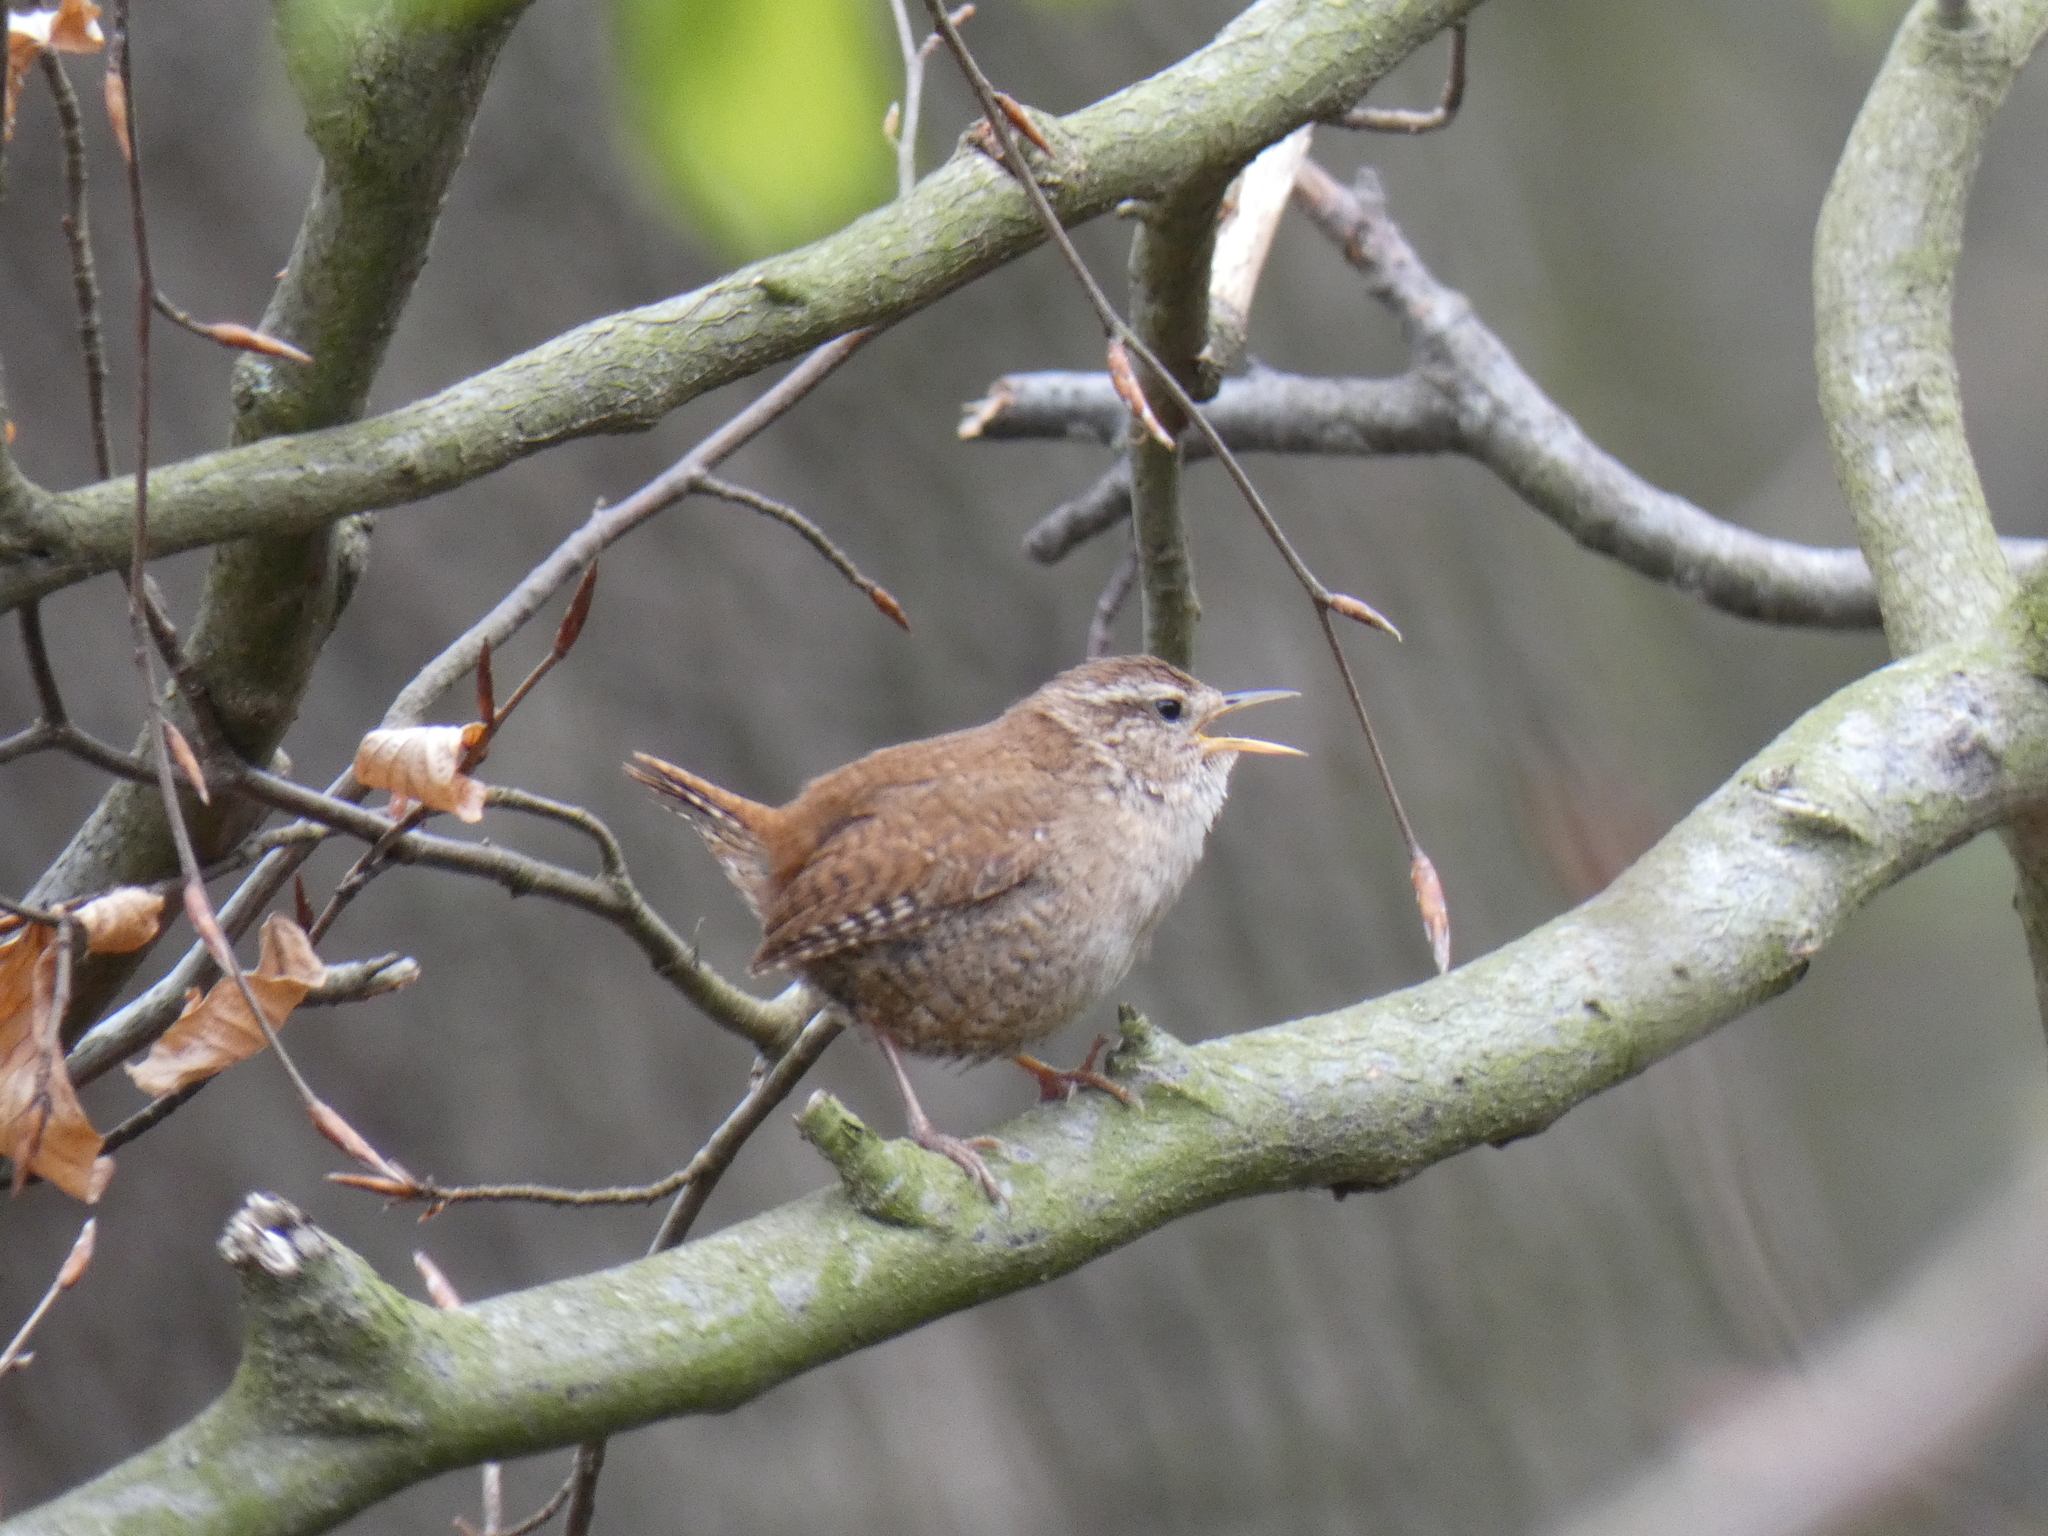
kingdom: Animalia
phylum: Chordata
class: Aves
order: Passeriformes
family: Troglodytidae
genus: Troglodytes
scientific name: Troglodytes troglodytes
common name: Eurasian wren
